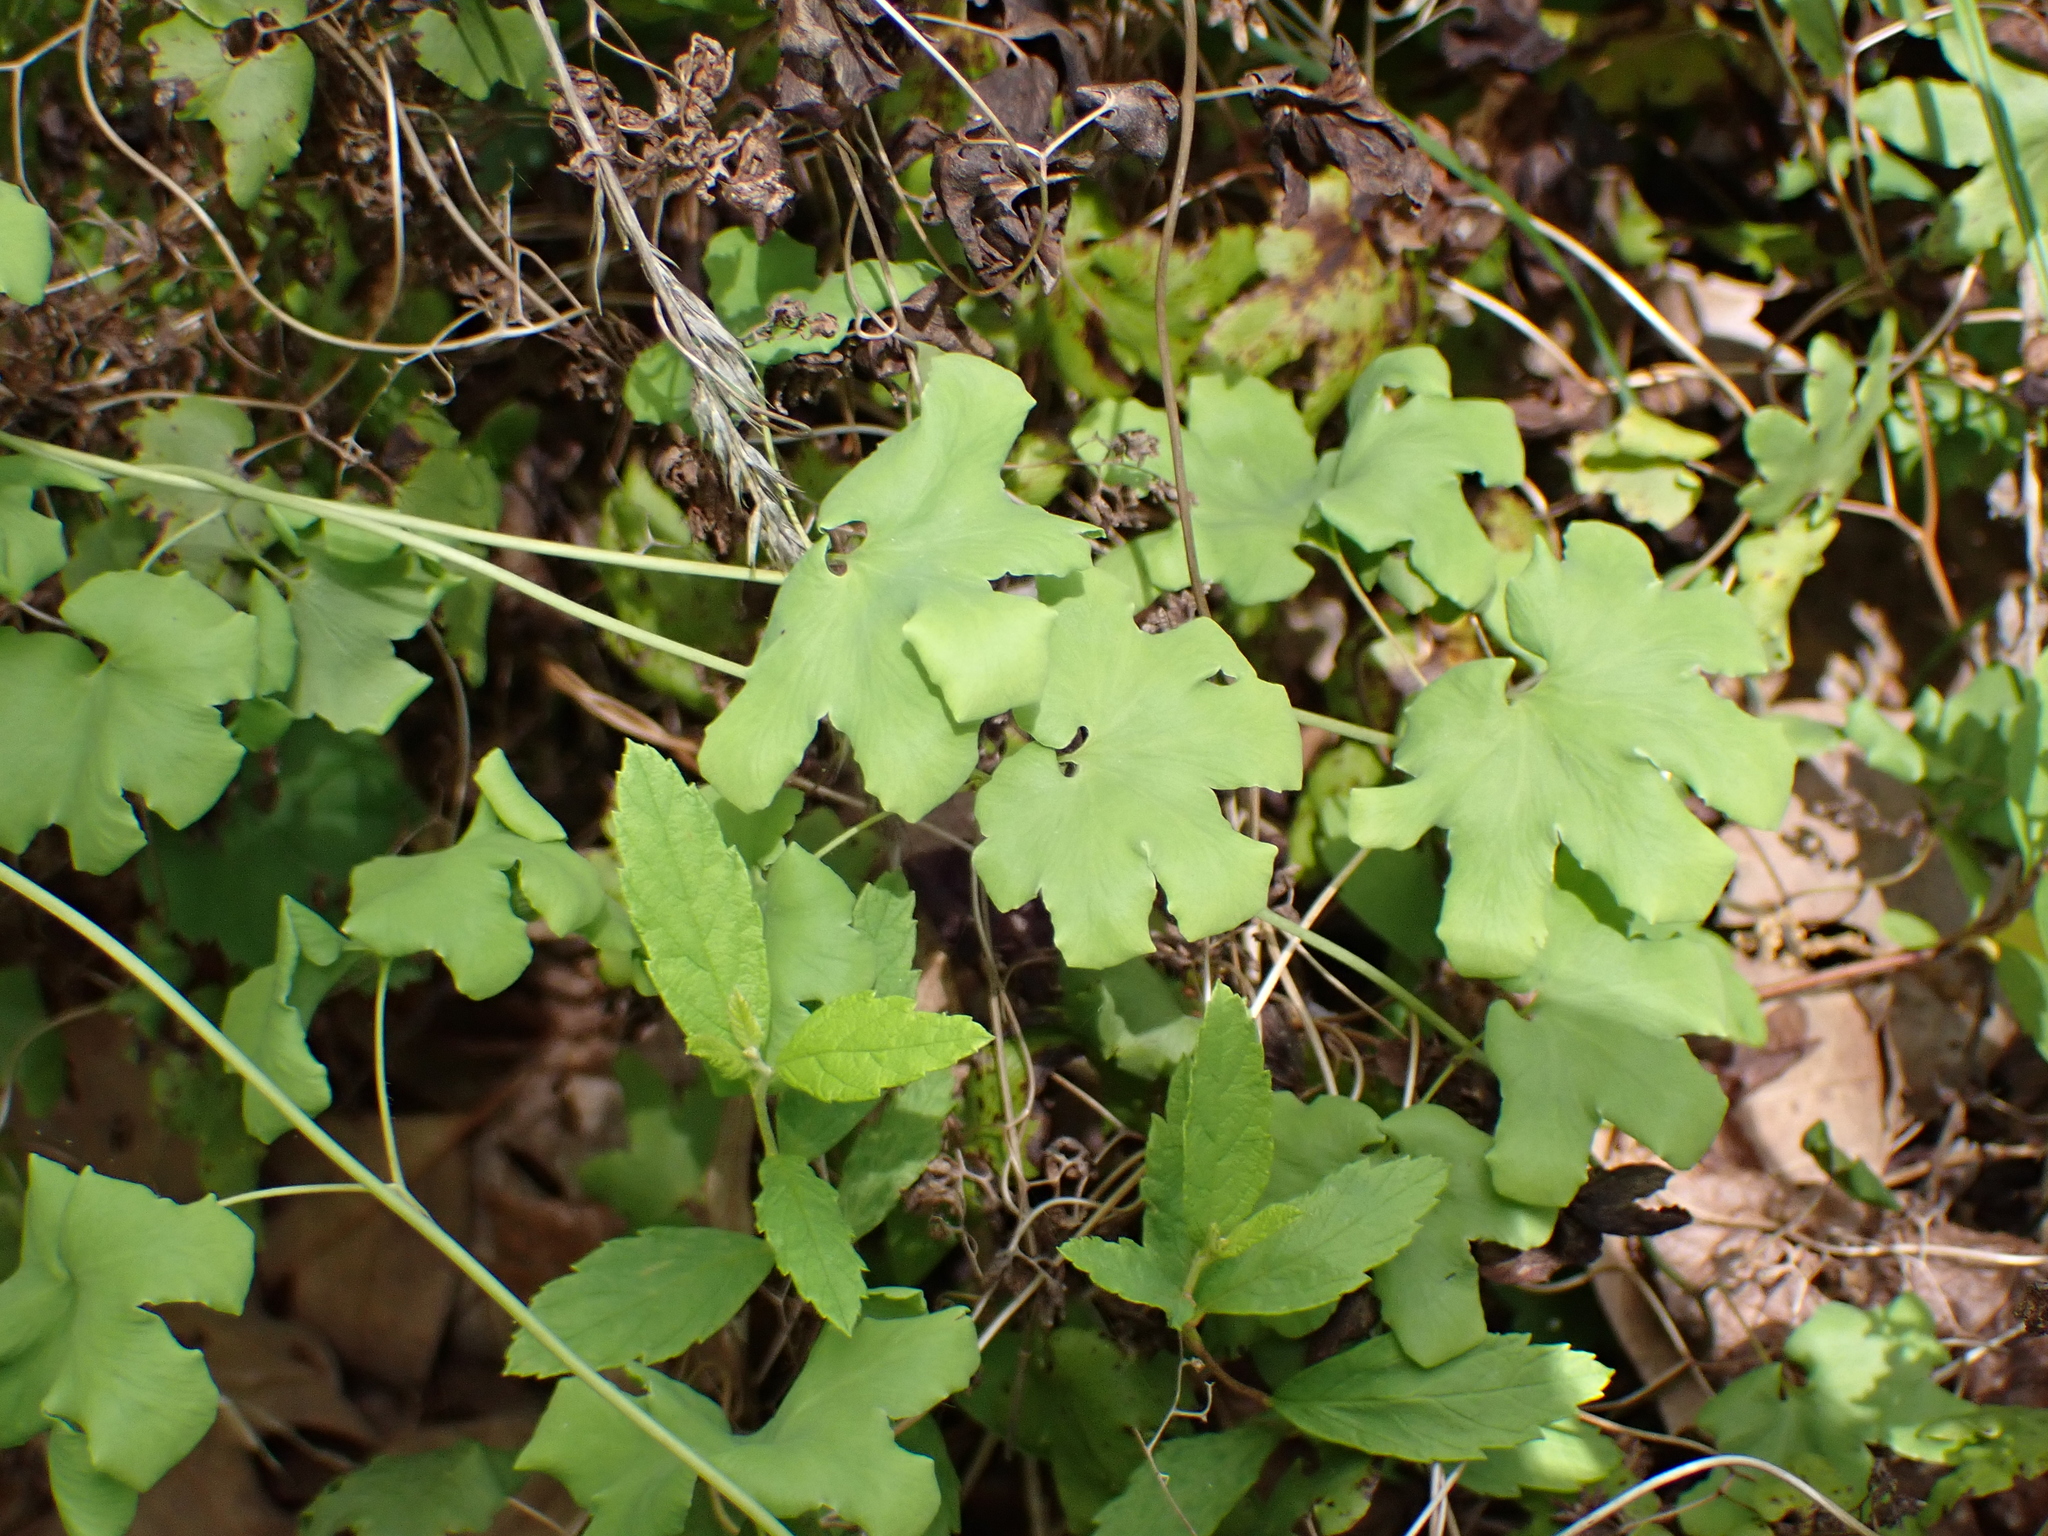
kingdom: Plantae
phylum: Tracheophyta
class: Polypodiopsida
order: Schizaeales
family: Lygodiaceae
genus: Lygodium
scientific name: Lygodium palmatum
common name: American climbing fern
